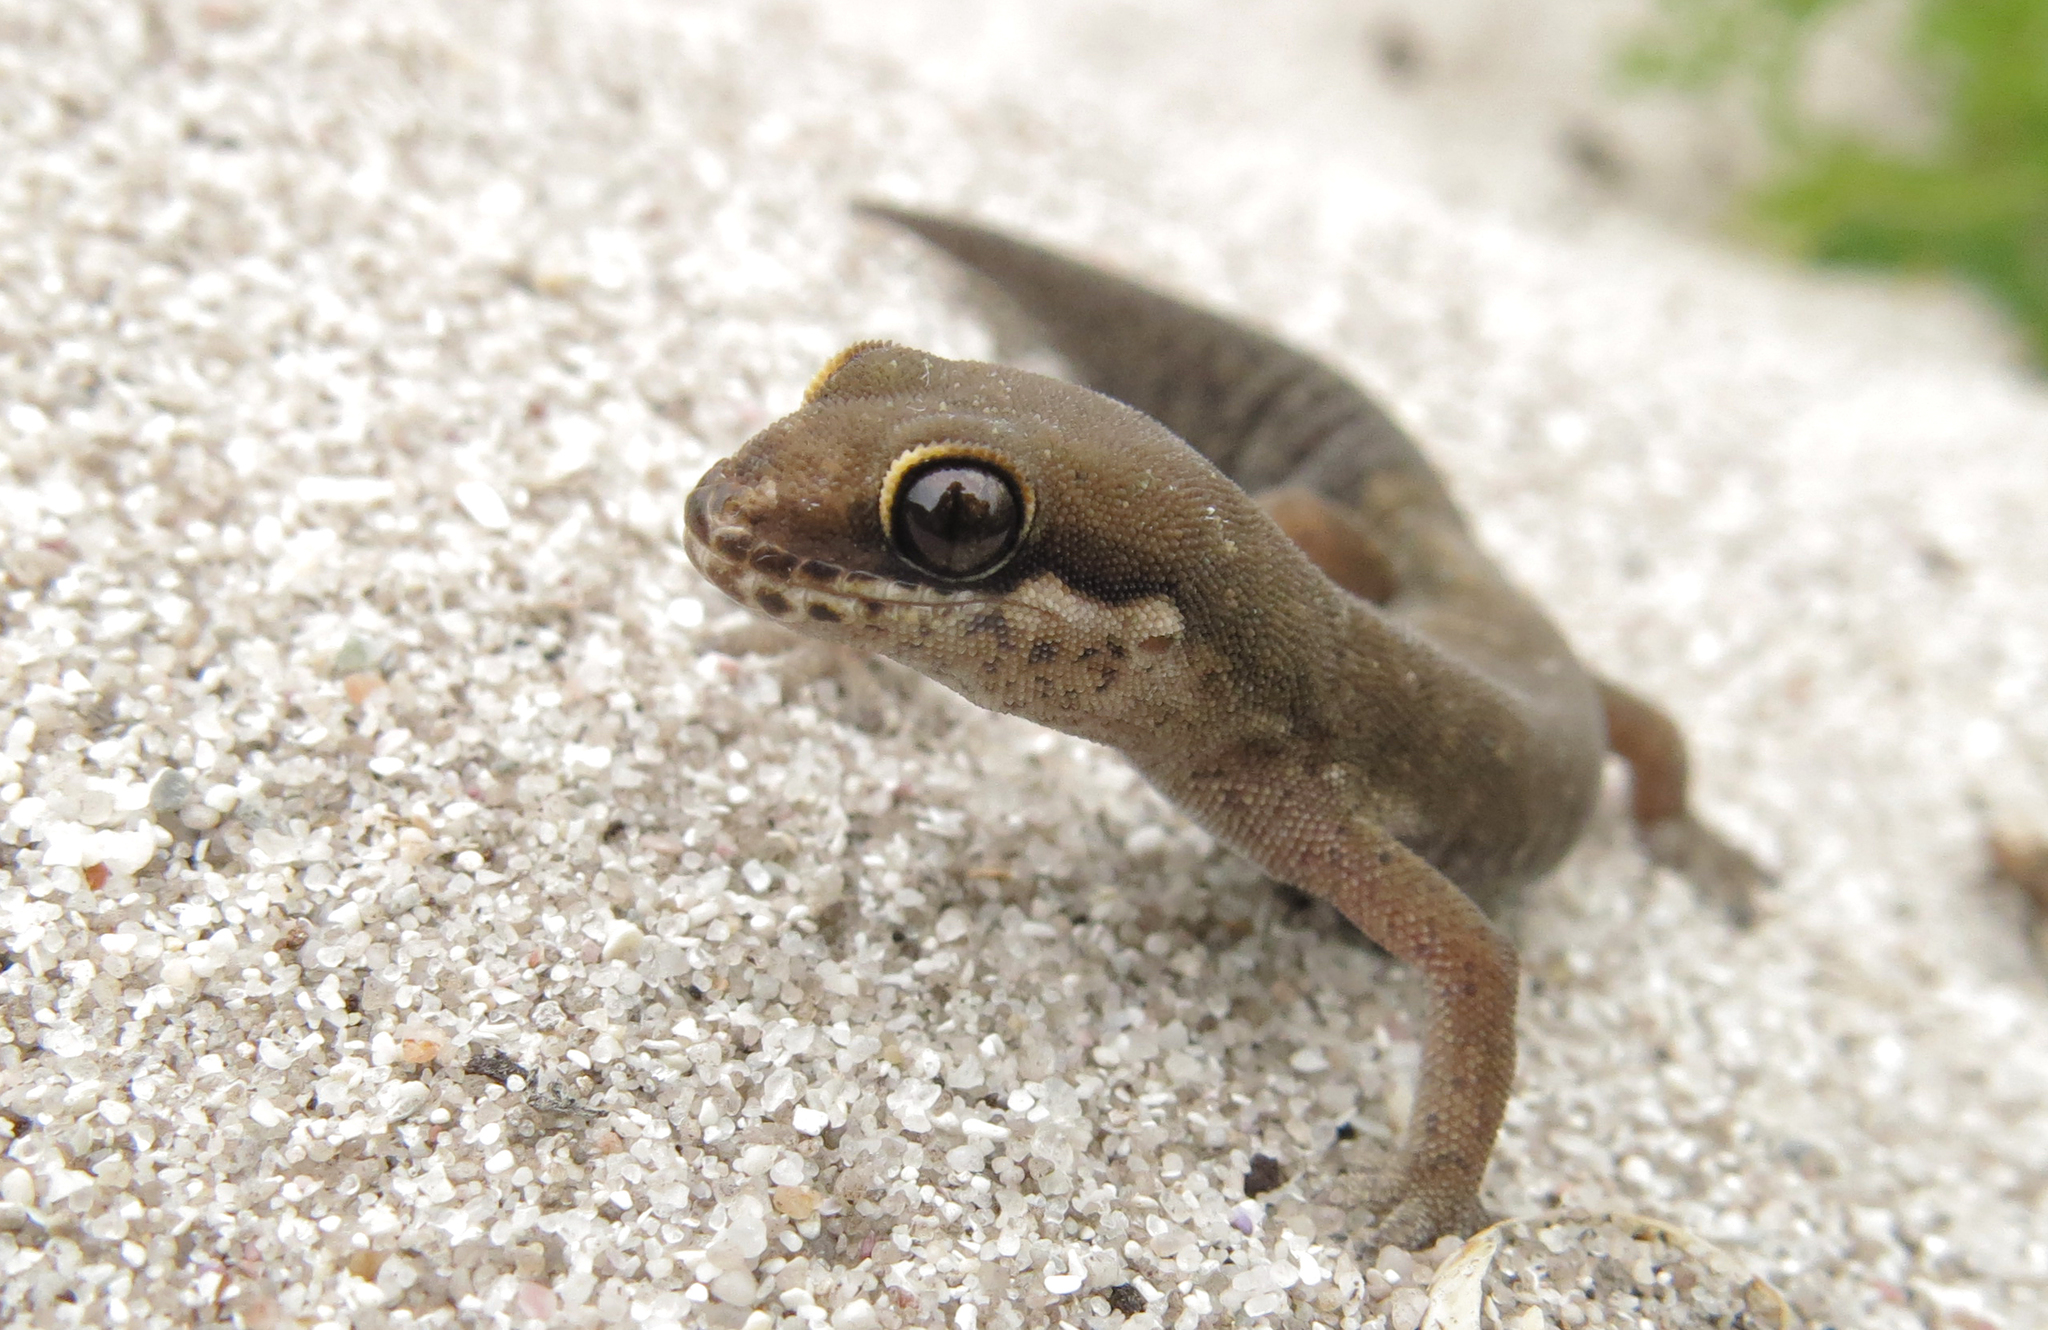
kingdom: Animalia
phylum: Chordata
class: Squamata
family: Gekkonidae
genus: Pachydactylus
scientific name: Pachydactylus geitje
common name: Ocellated thick-toed gecko
